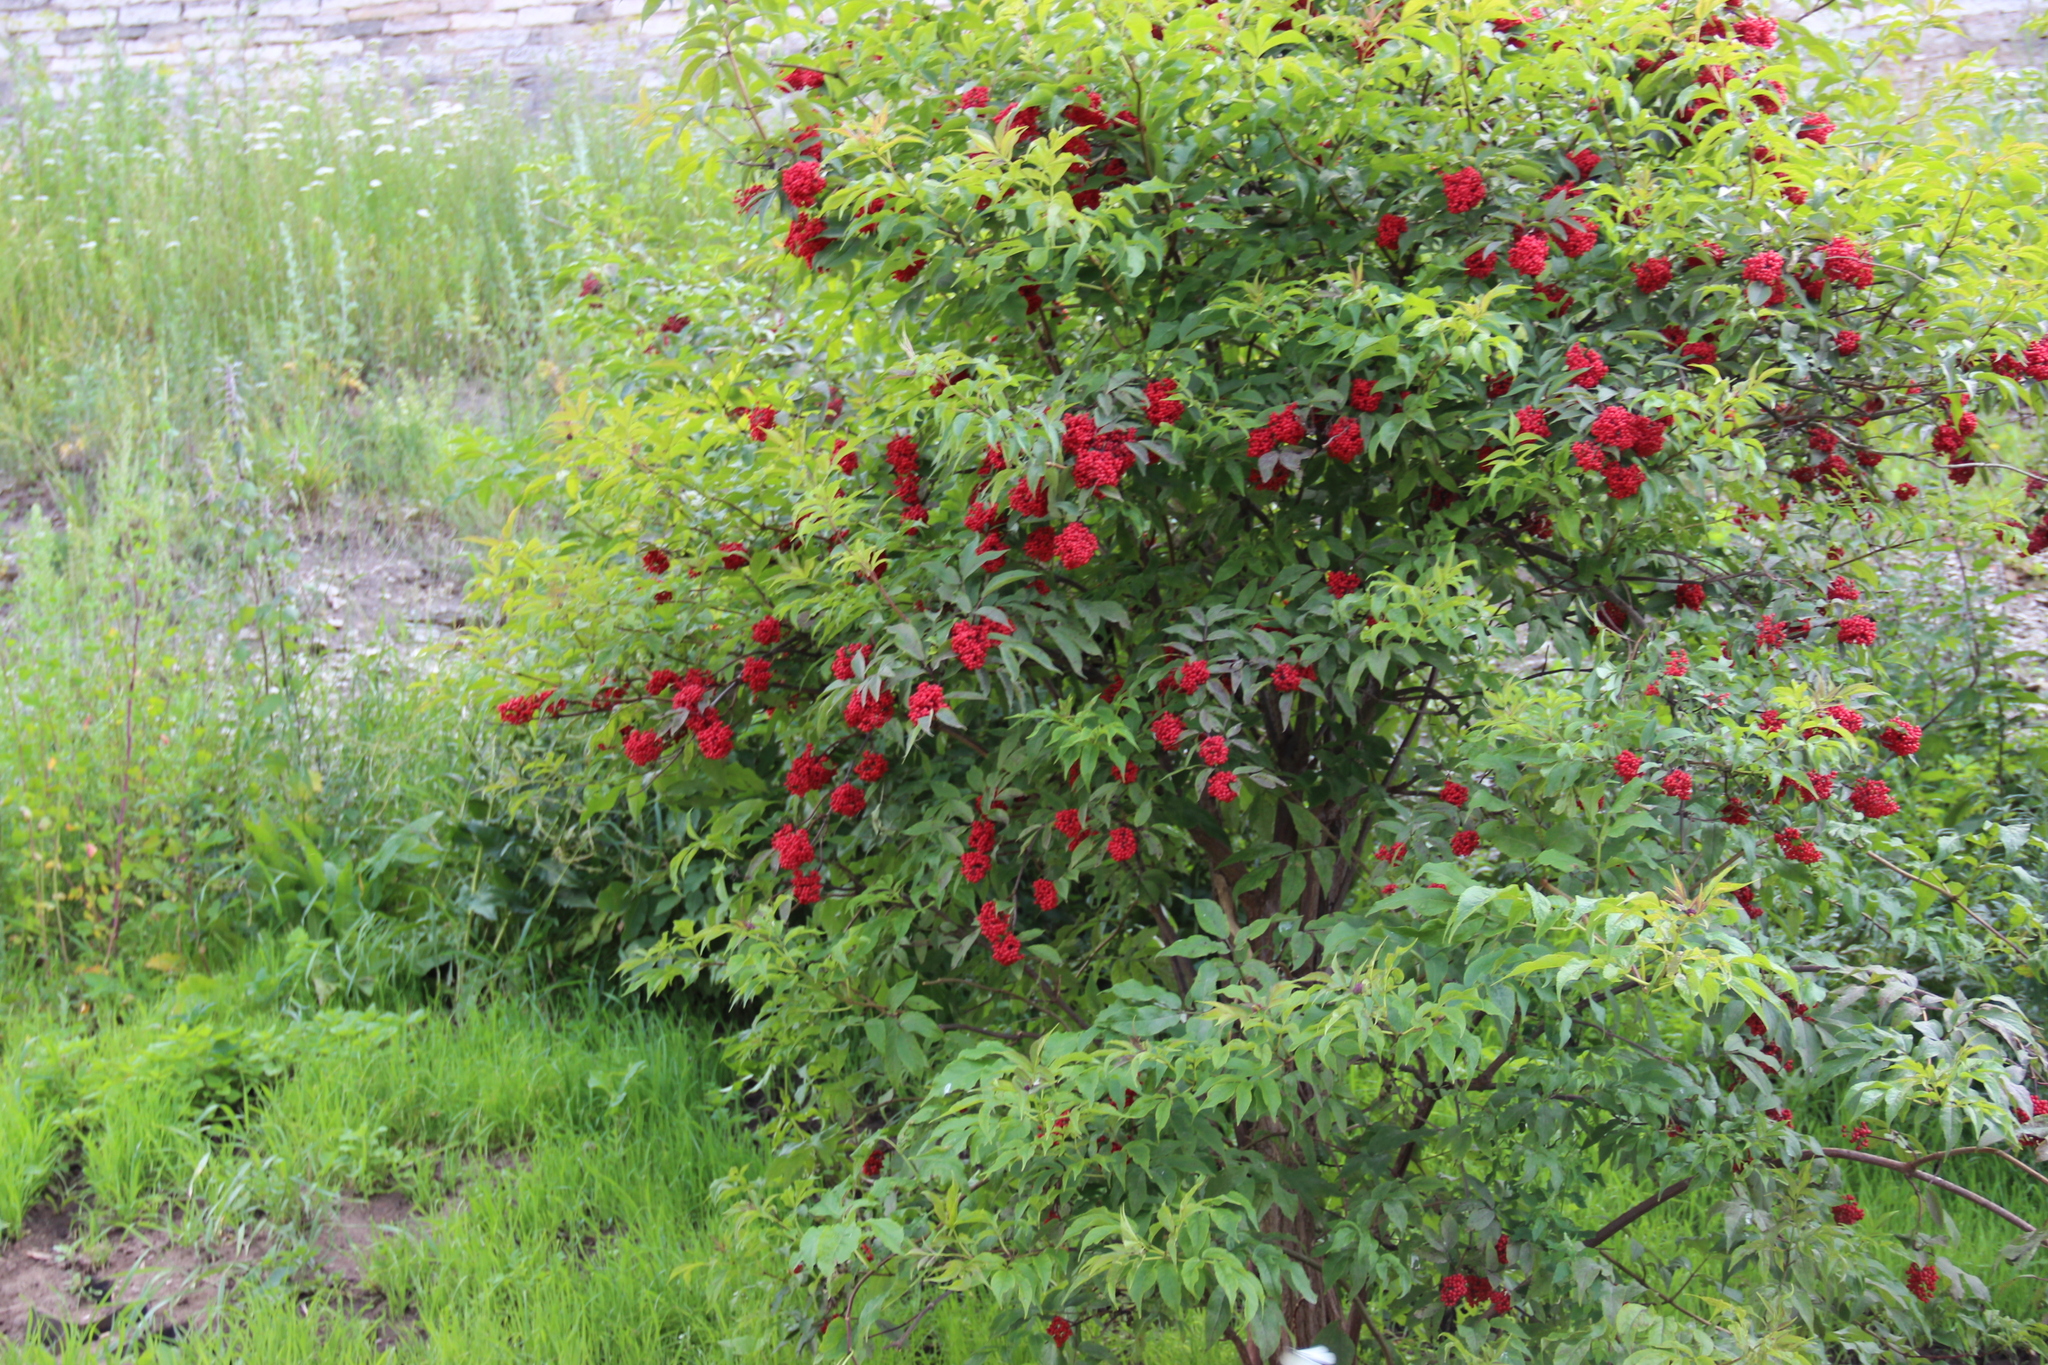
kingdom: Plantae
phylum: Tracheophyta
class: Magnoliopsida
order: Dipsacales
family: Viburnaceae
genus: Sambucus
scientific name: Sambucus racemosa
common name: Red-berried elder
